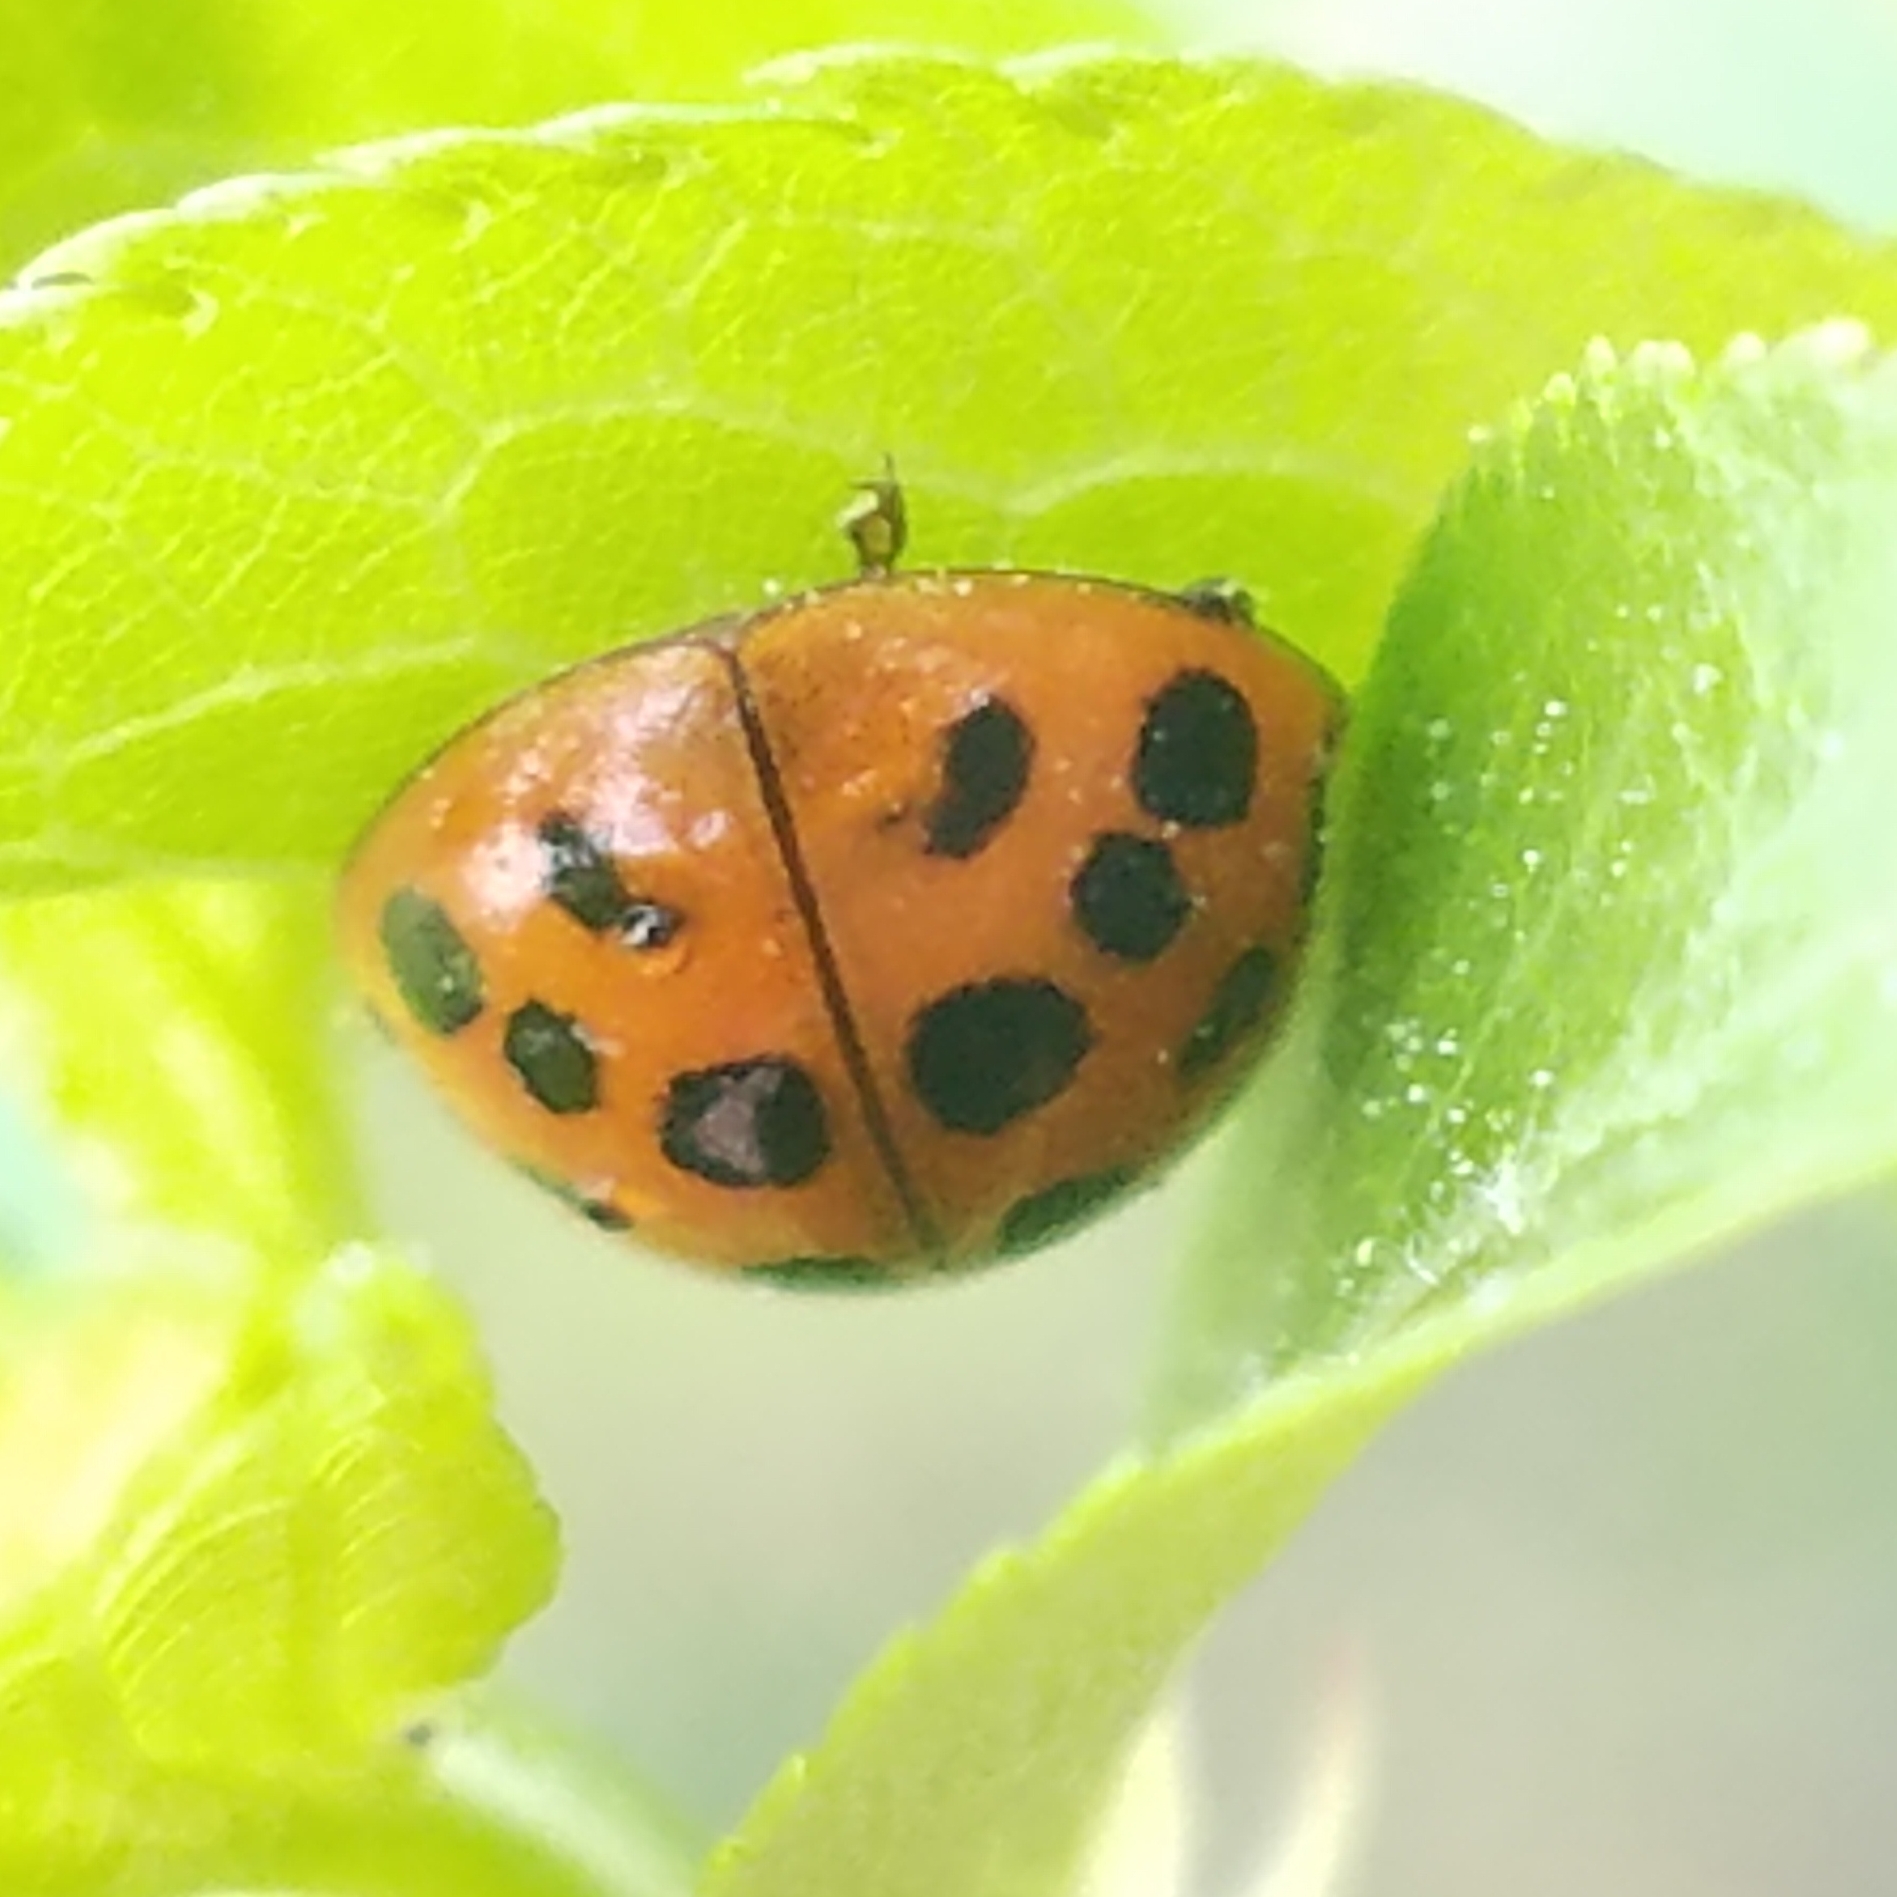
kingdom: Animalia
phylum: Arthropoda
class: Insecta
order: Coleoptera
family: Coccinellidae
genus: Harmonia
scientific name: Harmonia axyridis
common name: Harlequin ladybird
